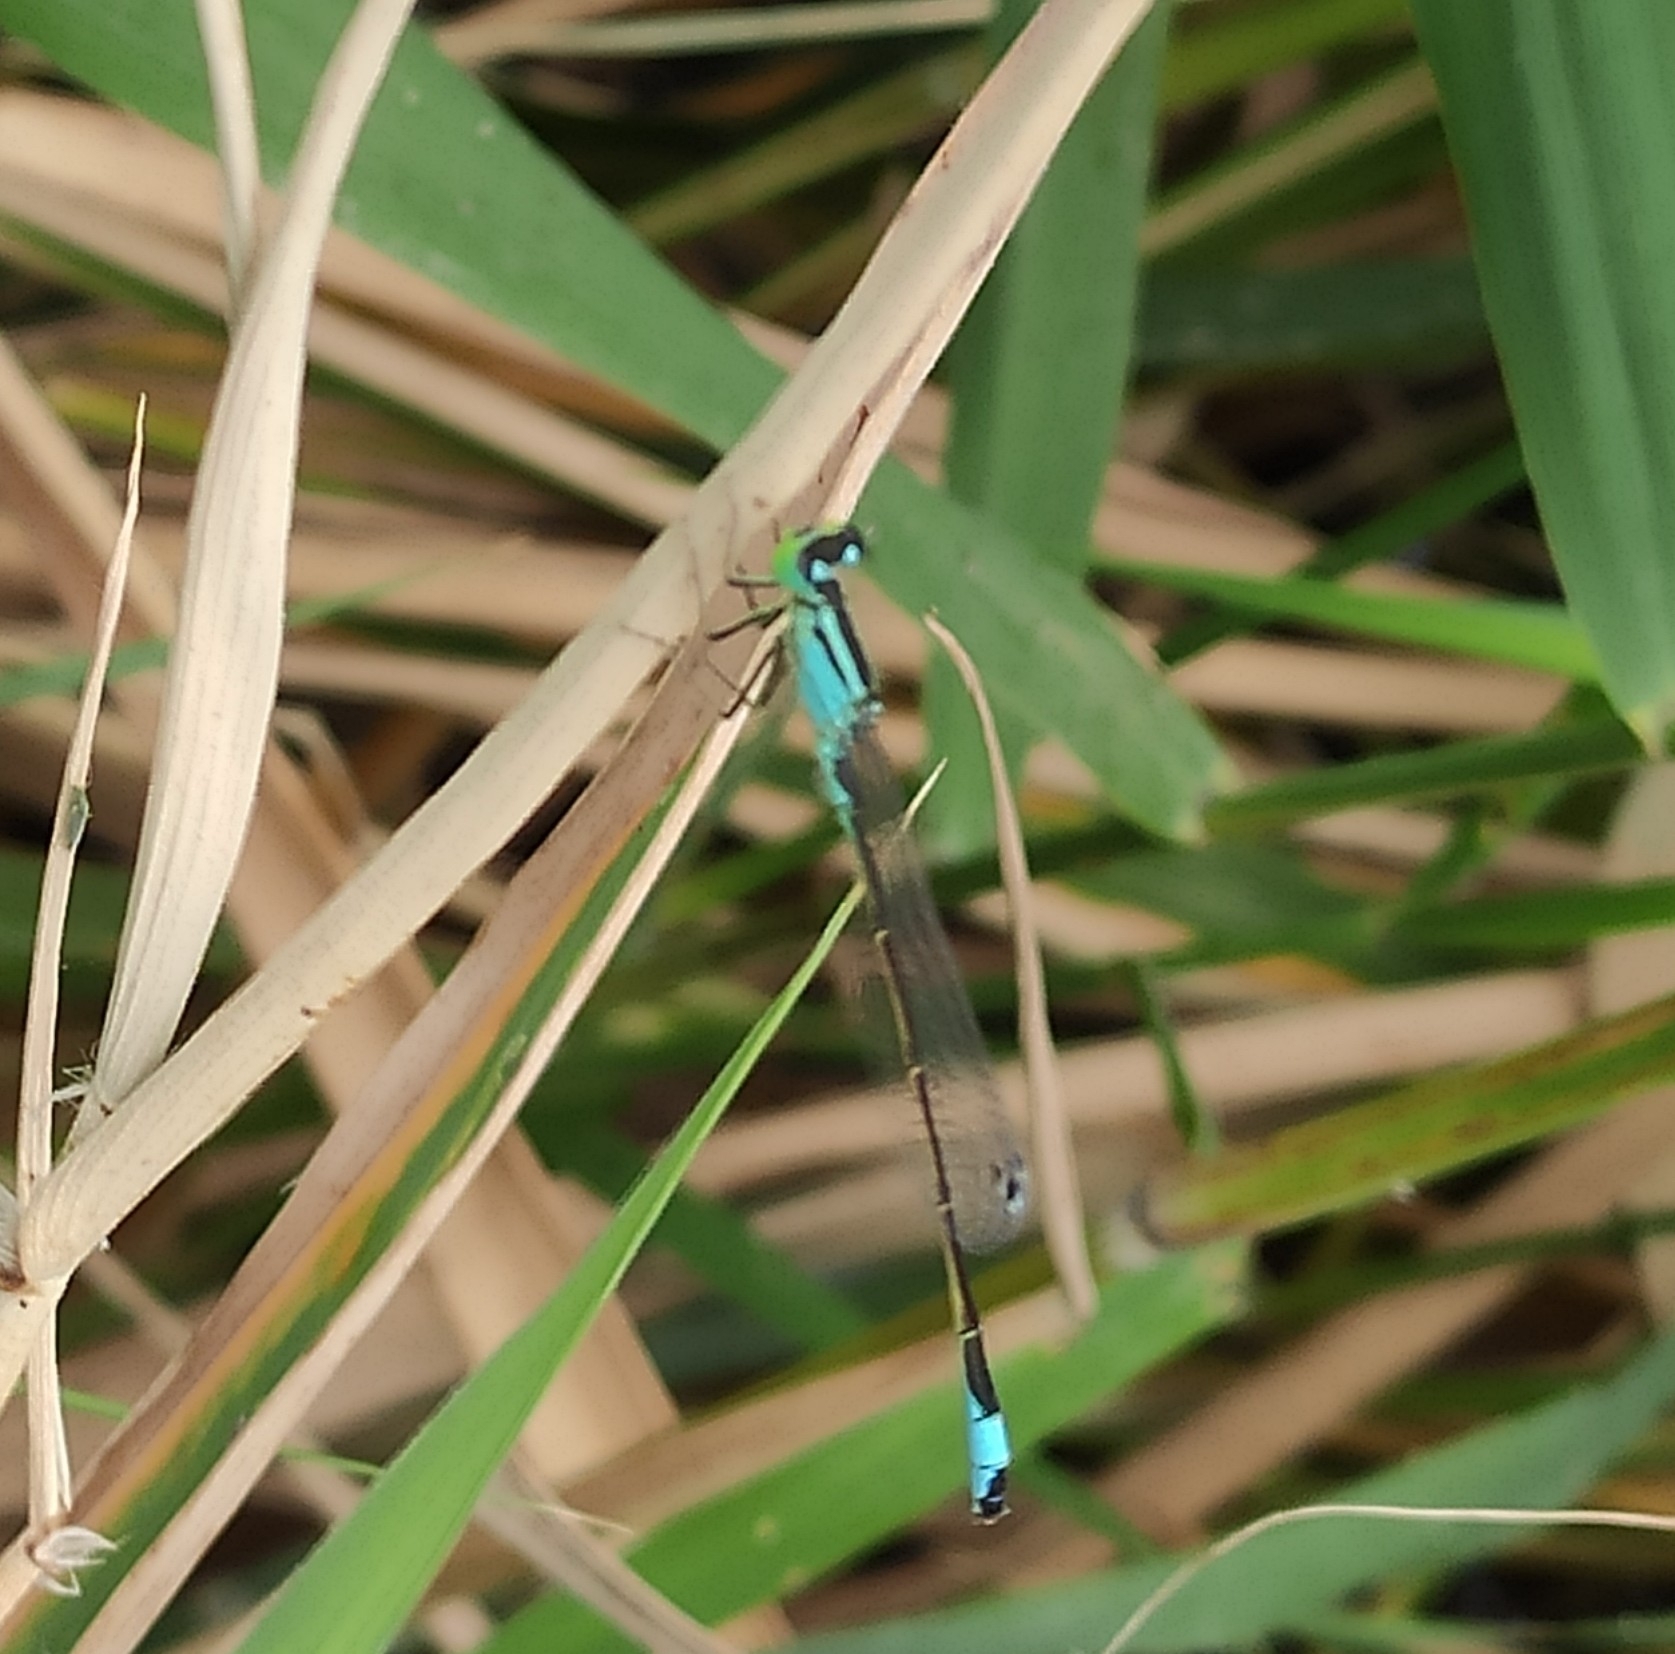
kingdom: Animalia
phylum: Arthropoda
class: Insecta
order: Odonata
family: Coenagrionidae
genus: Ischnura
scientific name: Ischnura elegans
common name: Blue-tailed damselfly
